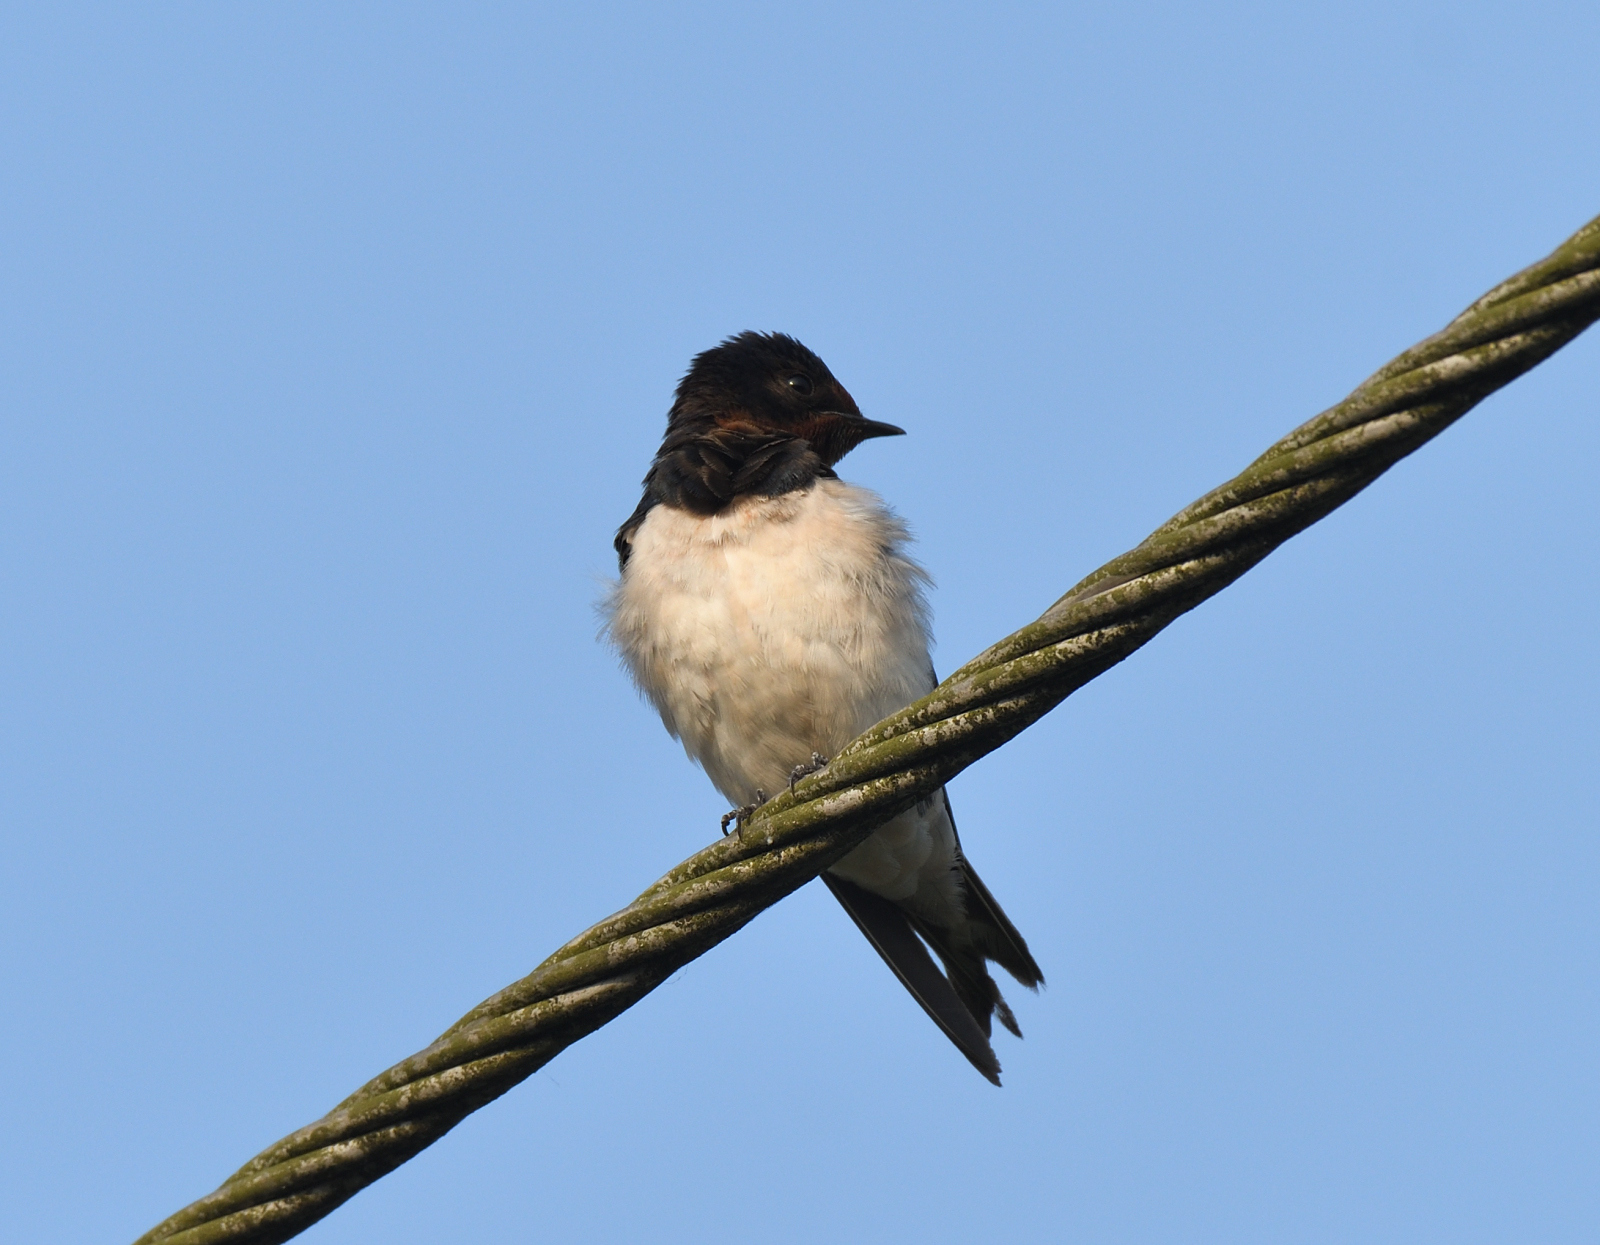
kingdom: Animalia
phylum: Chordata
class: Aves
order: Passeriformes
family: Hirundinidae
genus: Hirundo
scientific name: Hirundo rustica
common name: Barn swallow
